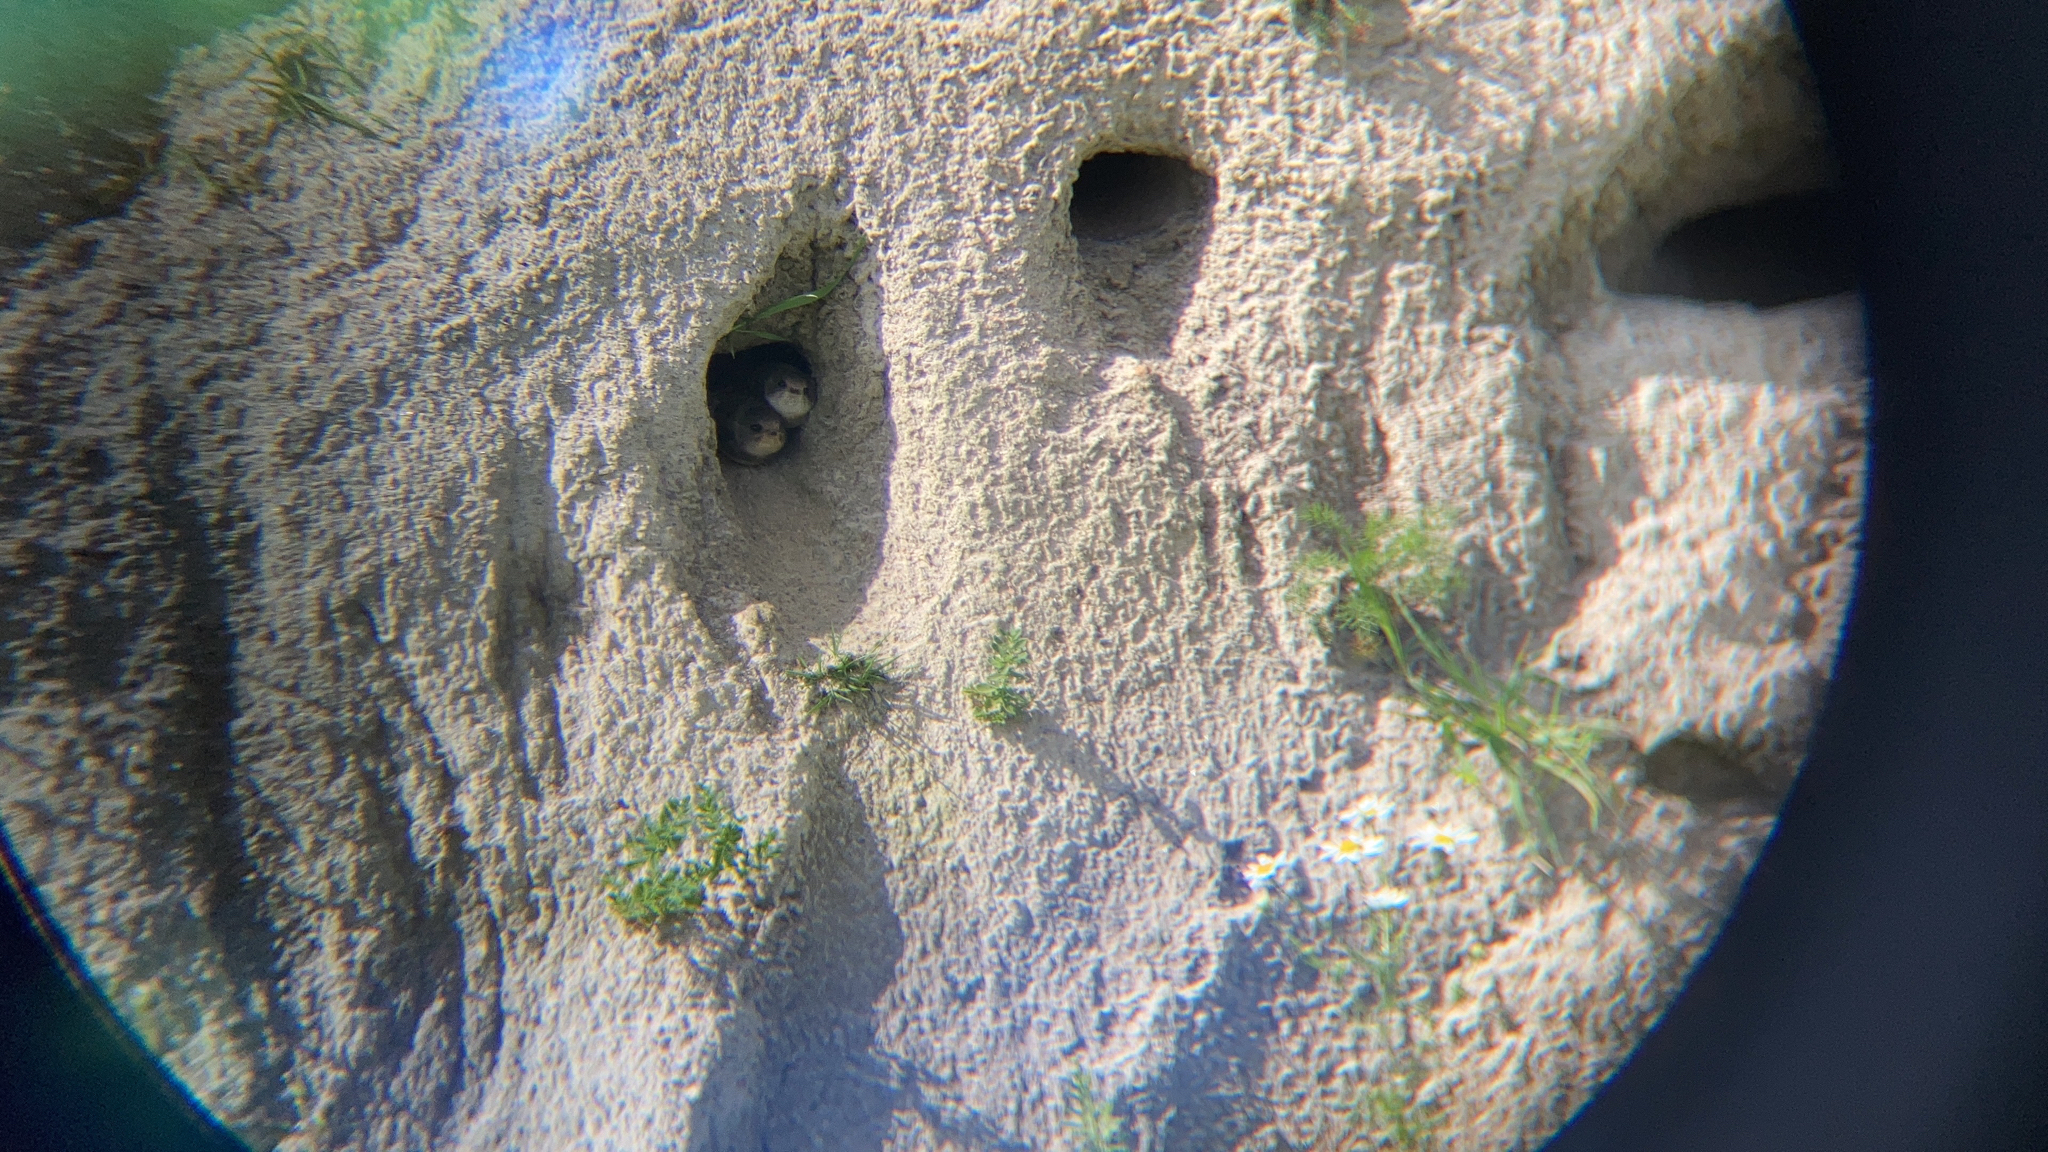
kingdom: Animalia
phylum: Chordata
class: Aves
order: Passeriformes
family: Hirundinidae
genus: Riparia
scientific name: Riparia riparia
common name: Sand martin
